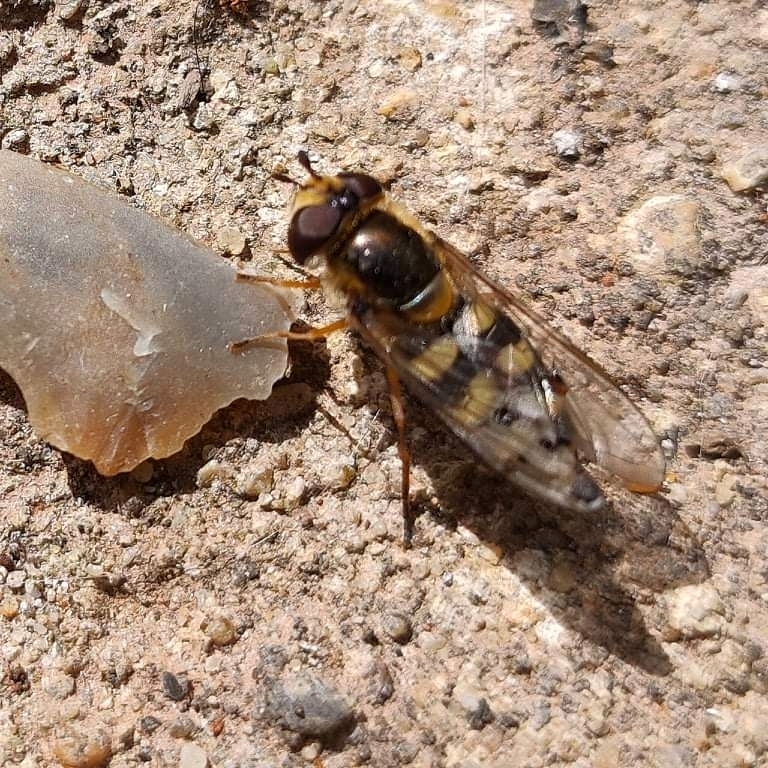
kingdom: Animalia
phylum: Arthropoda
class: Insecta
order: Diptera
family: Syrphidae
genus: Eupeodes
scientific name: Eupeodes luniger
